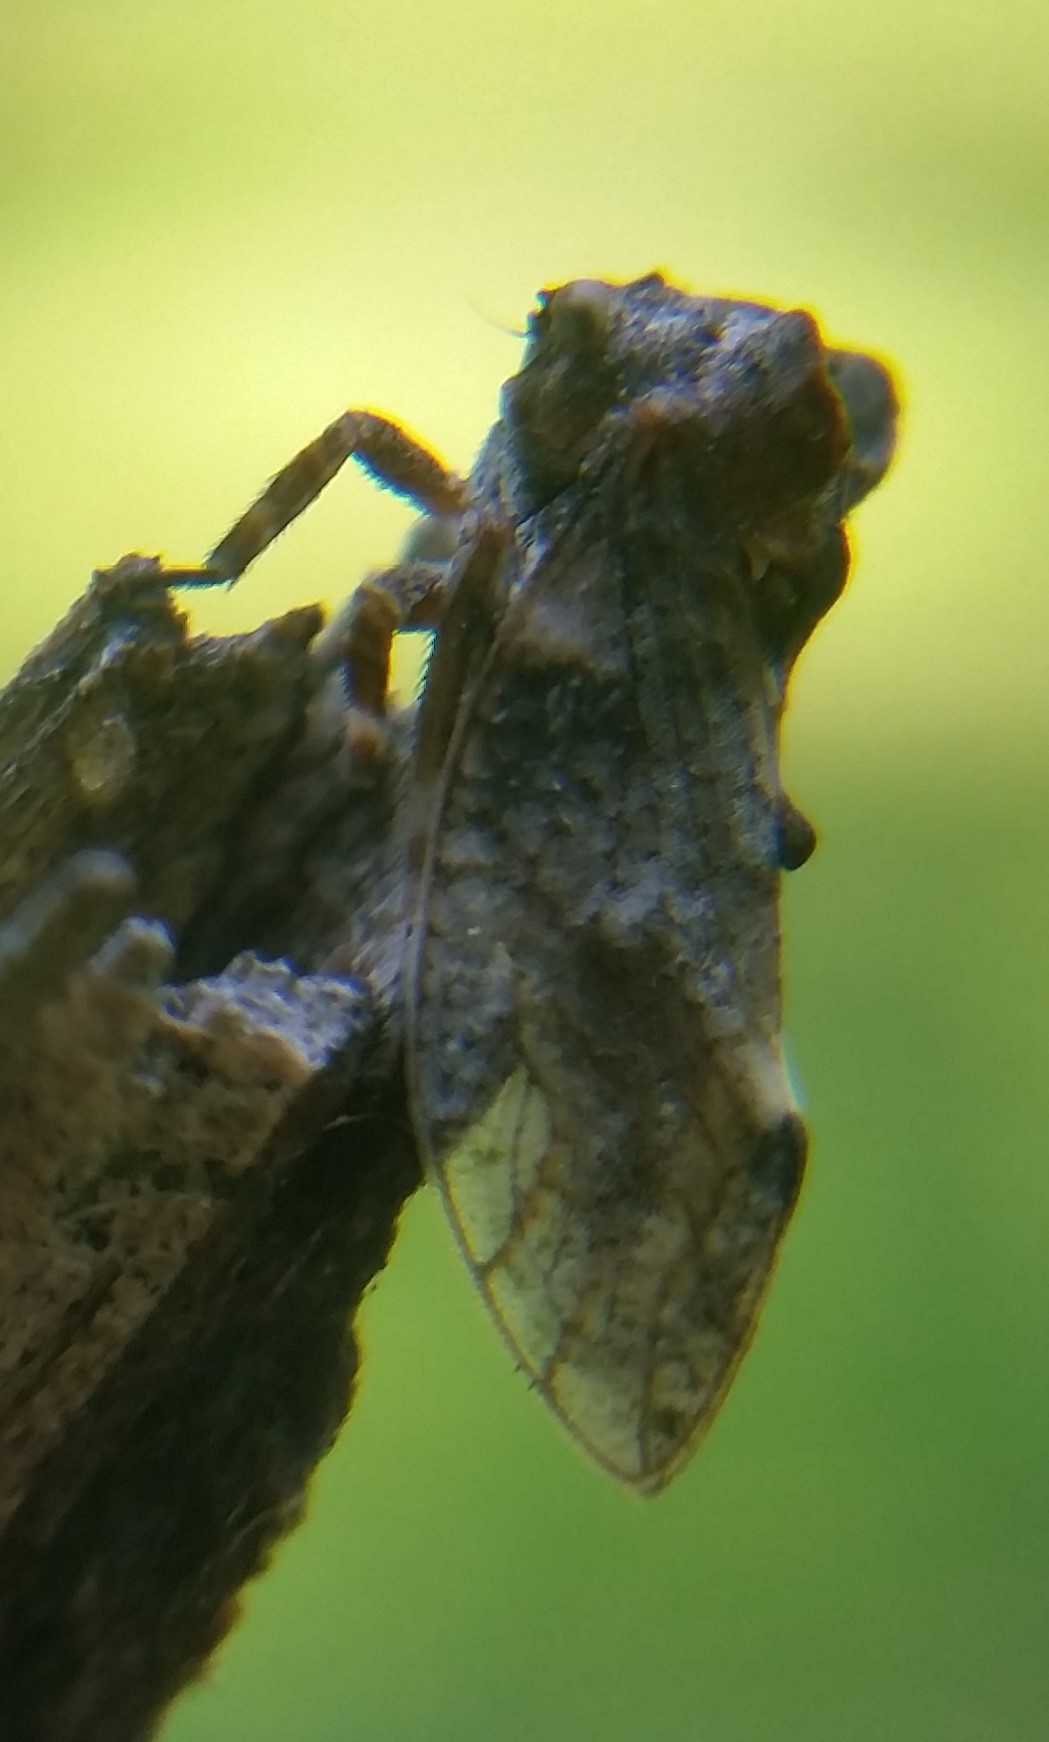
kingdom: Animalia
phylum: Arthropoda
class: Insecta
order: Hemiptera
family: Membracidae
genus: Microcentrus
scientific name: Microcentrus perdita
